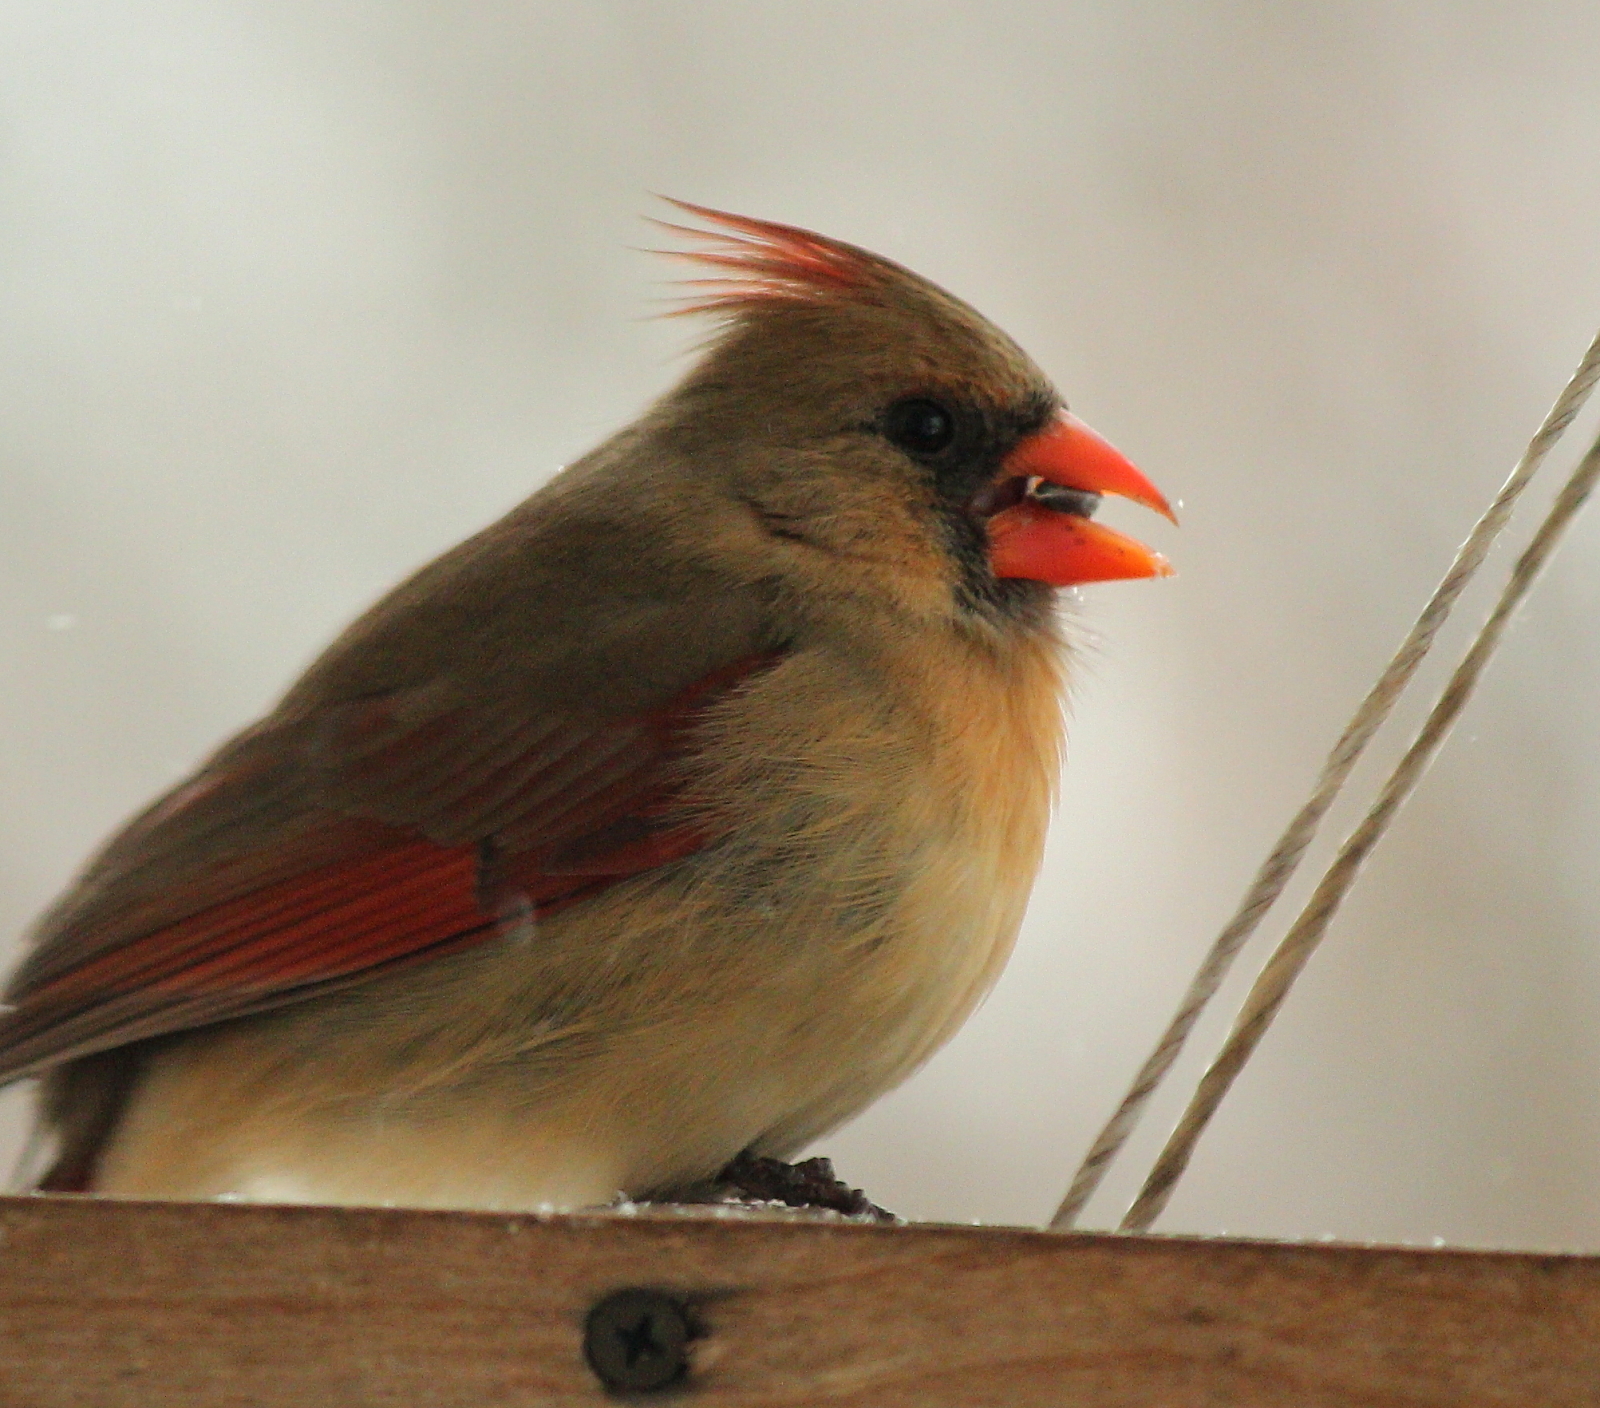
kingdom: Animalia
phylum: Chordata
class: Aves
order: Passeriformes
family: Cardinalidae
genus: Cardinalis
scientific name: Cardinalis cardinalis
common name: Northern cardinal
